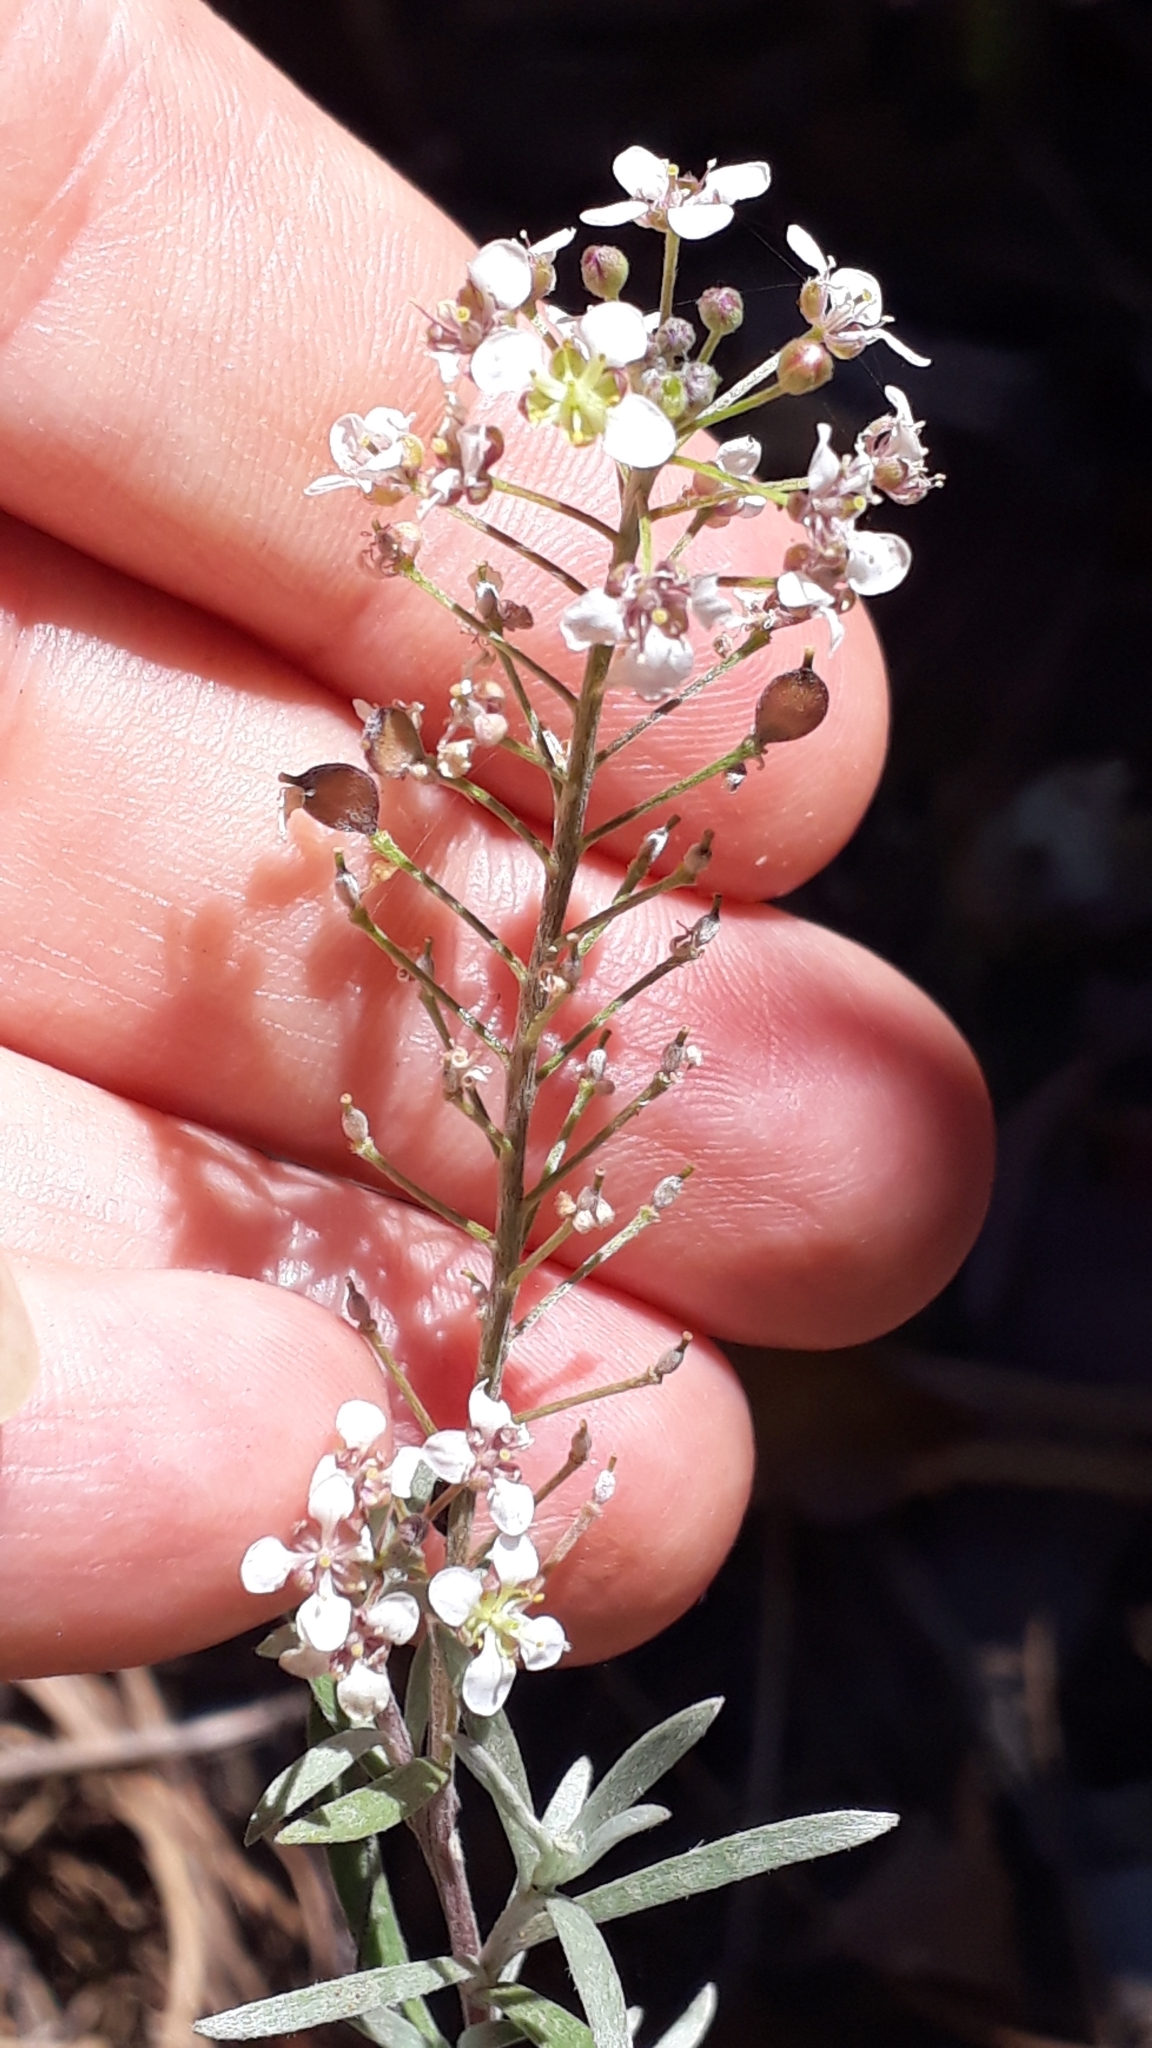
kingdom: Plantae
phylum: Tracheophyta
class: Magnoliopsida
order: Brassicales
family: Brassicaceae
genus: Lobularia
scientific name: Lobularia canariensis
